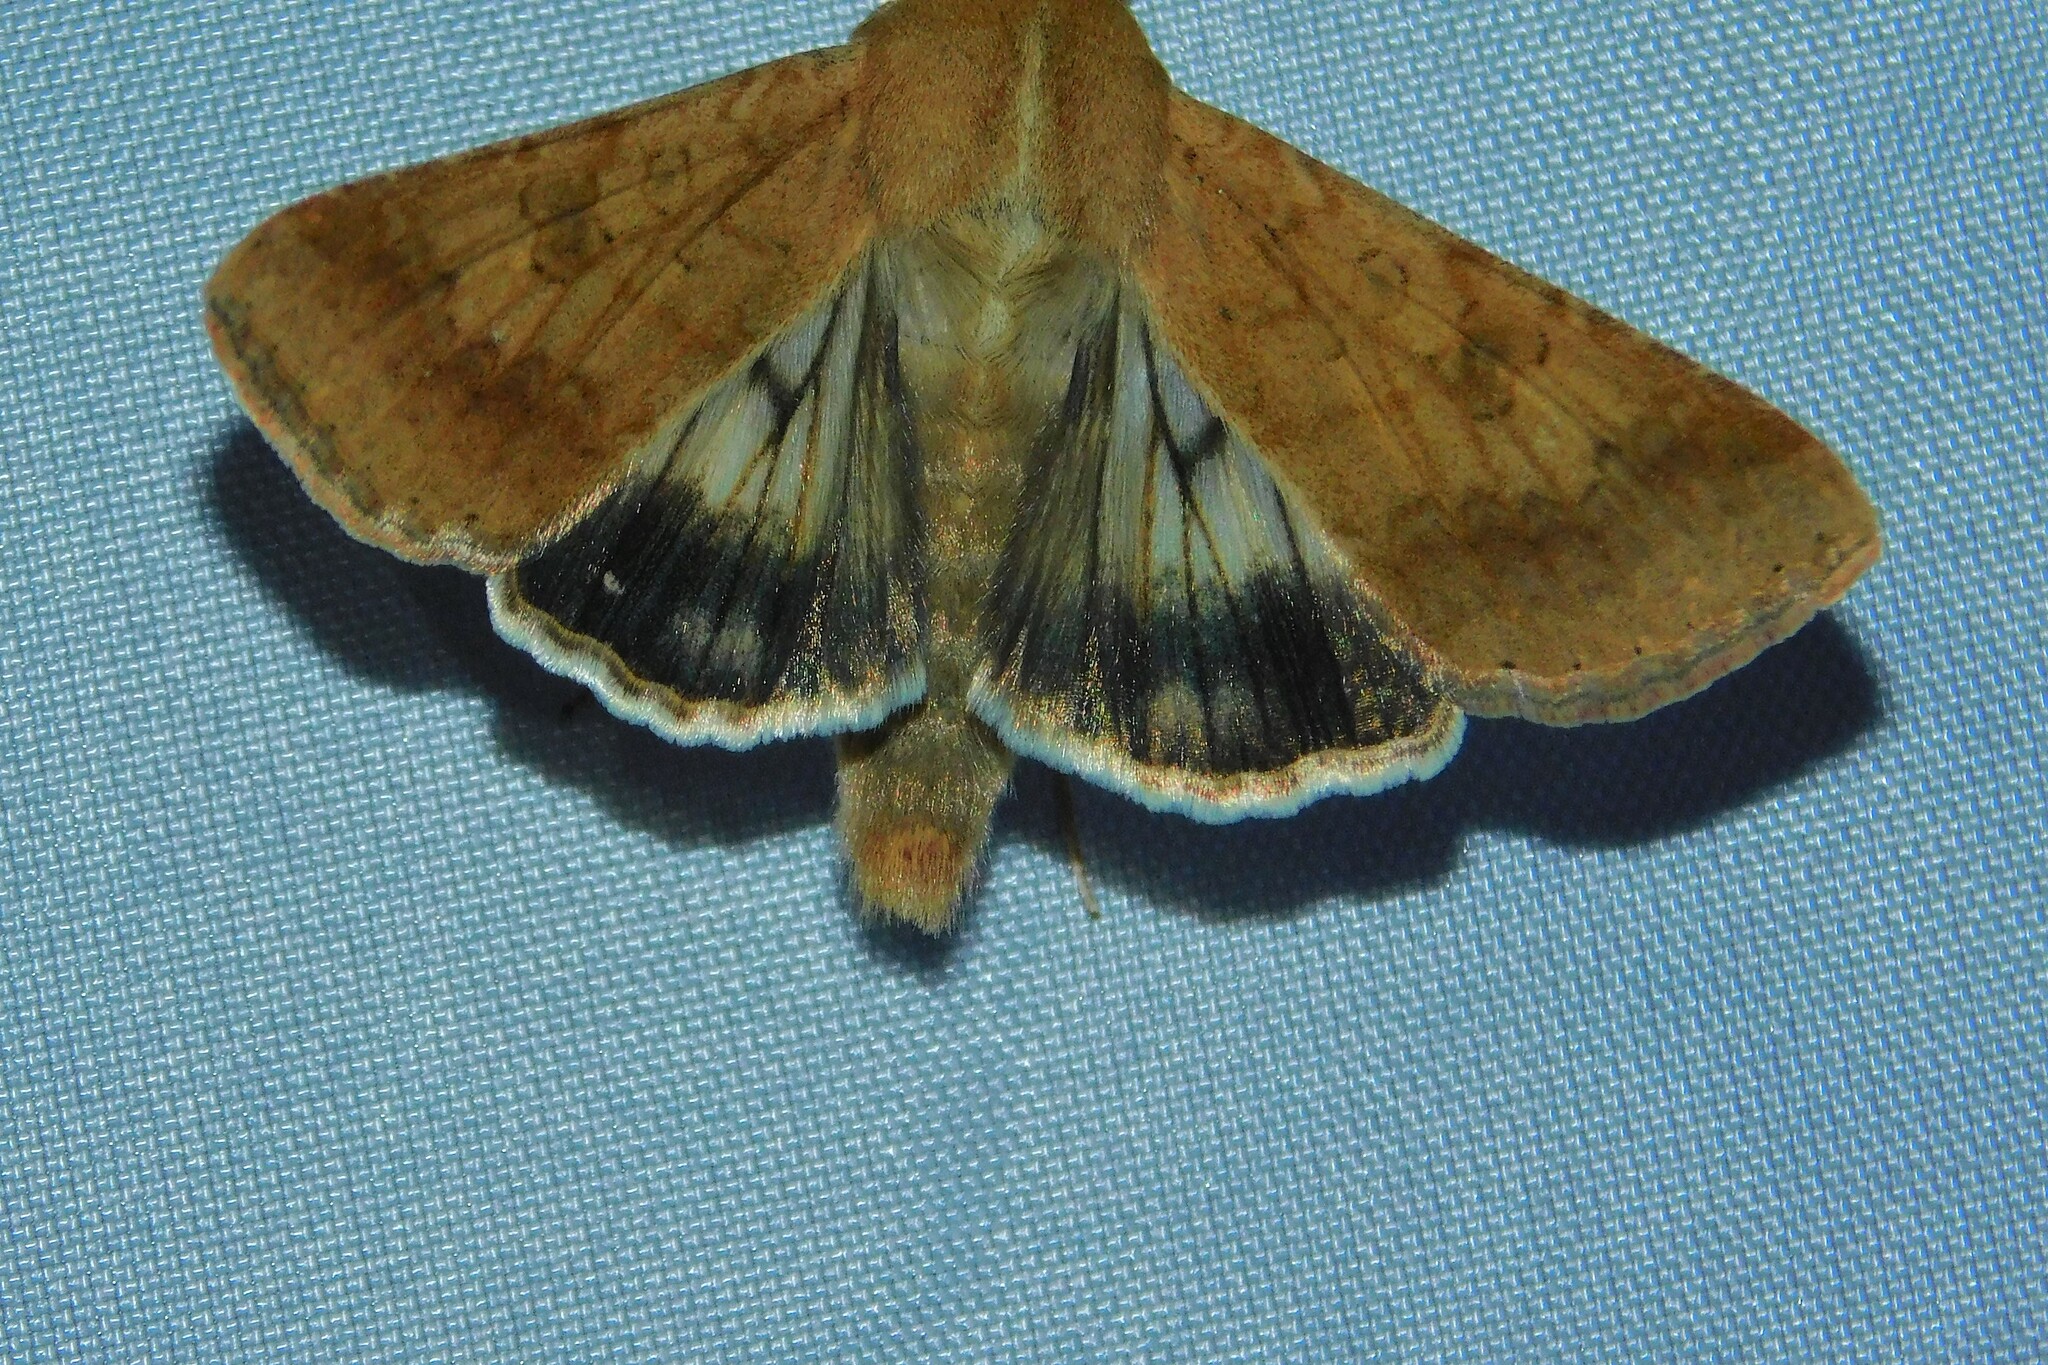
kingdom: Animalia
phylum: Arthropoda
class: Insecta
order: Lepidoptera
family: Noctuidae
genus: Helicoverpa
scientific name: Helicoverpa armigera
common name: Cotton bollworm
